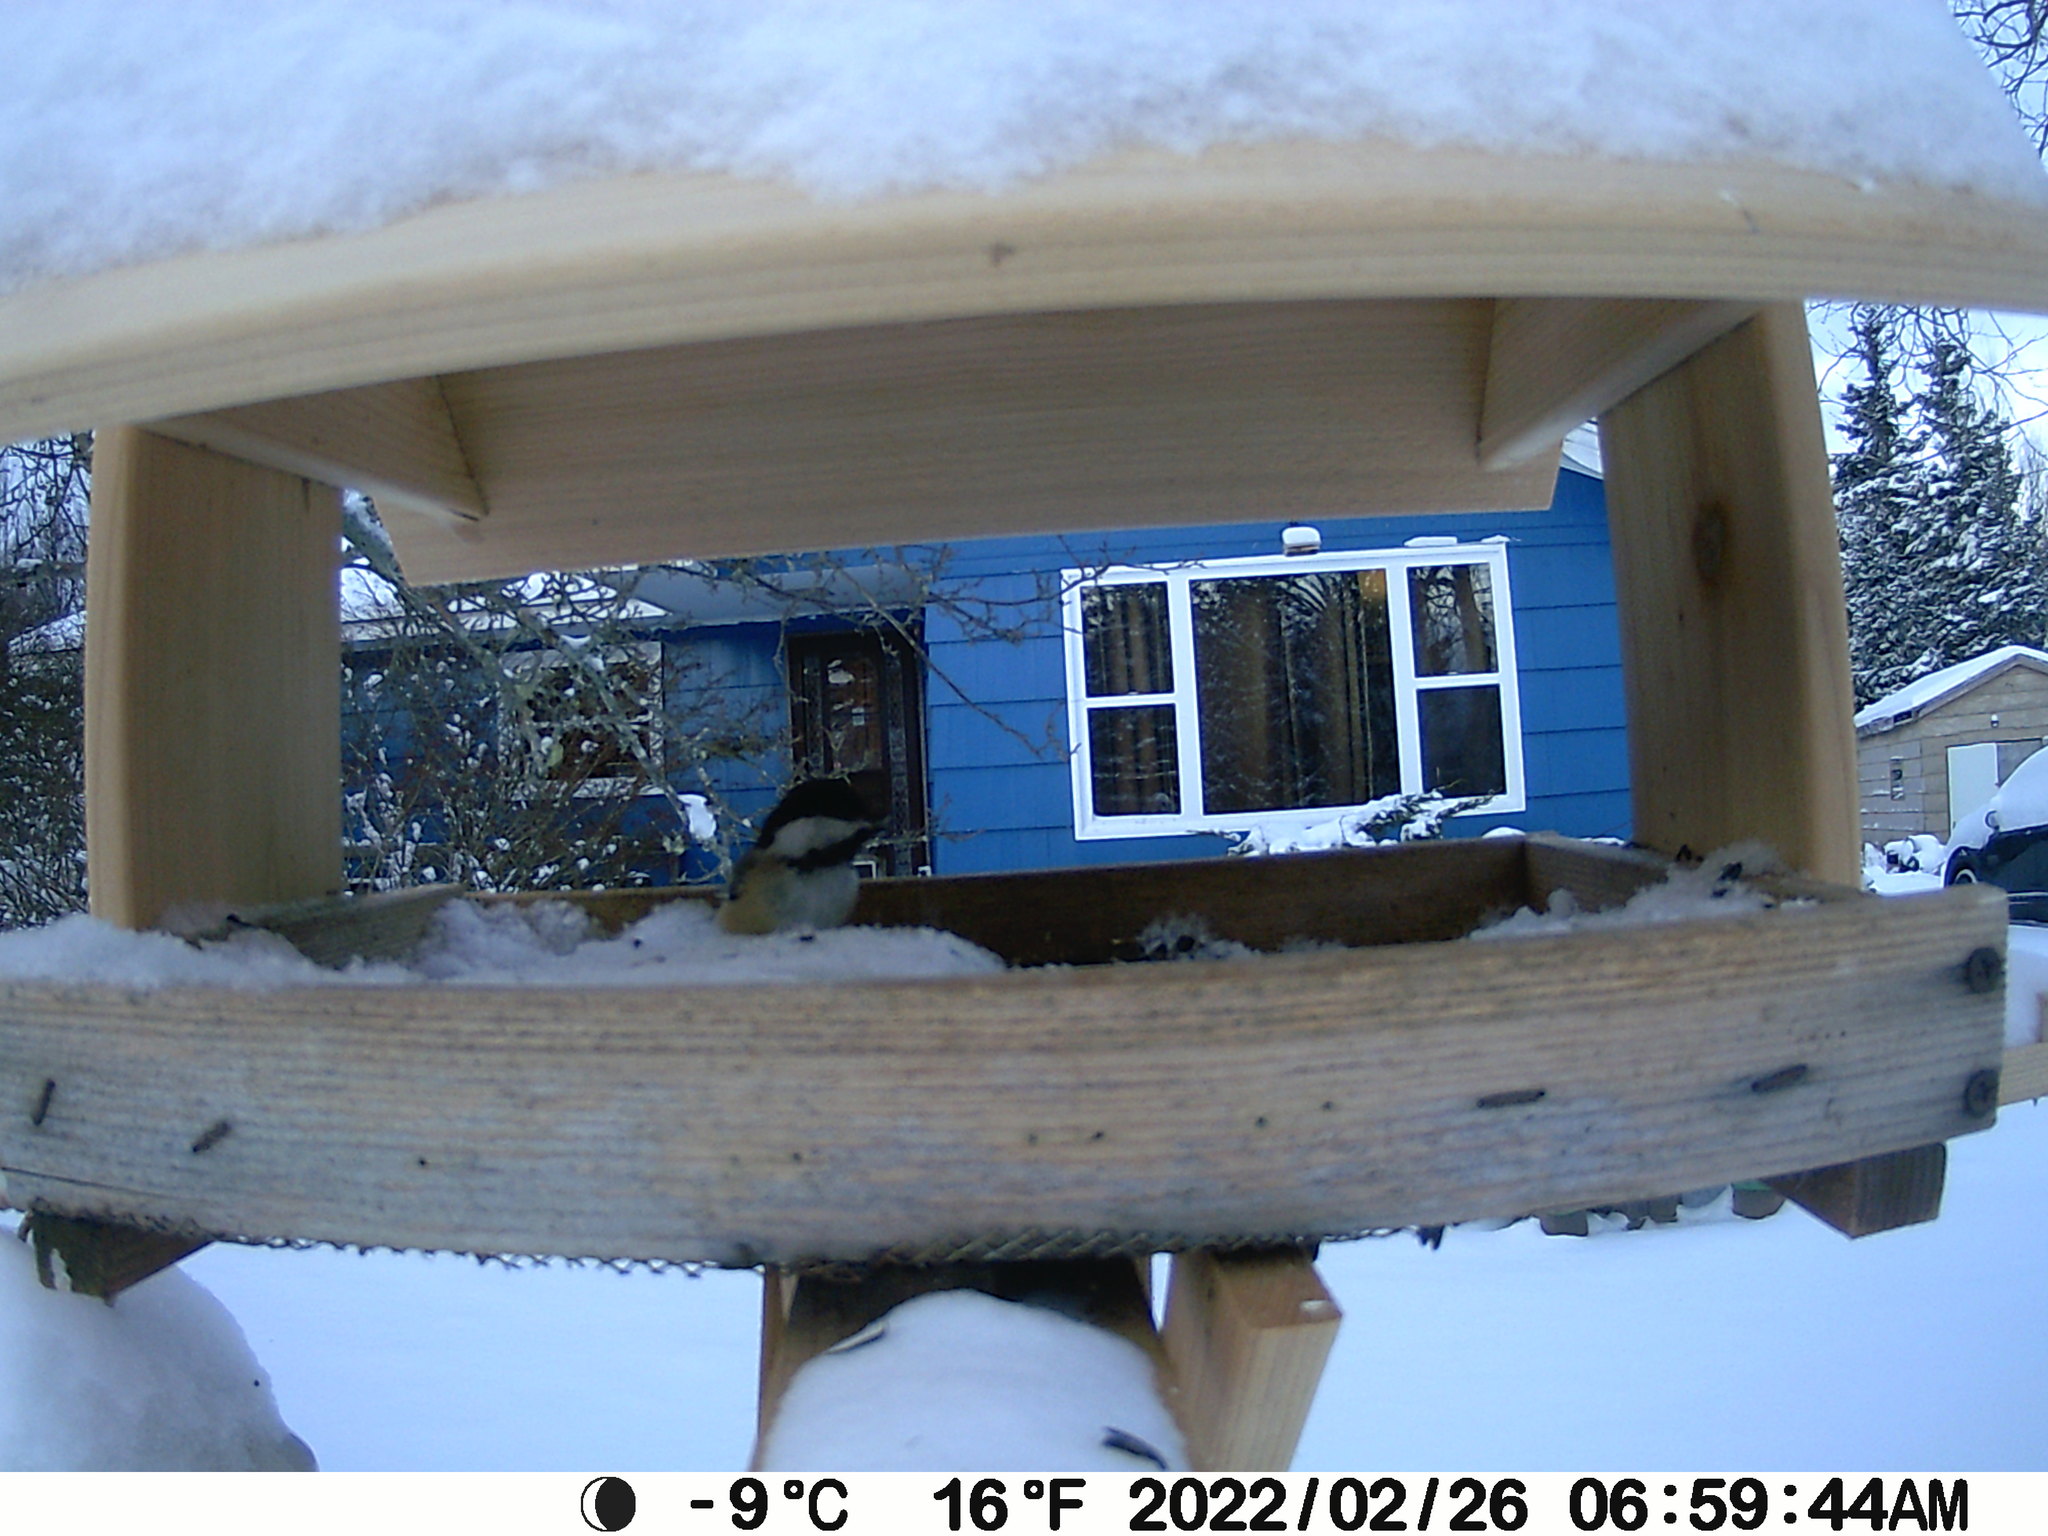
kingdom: Animalia
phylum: Chordata
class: Aves
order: Passeriformes
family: Paridae
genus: Poecile
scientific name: Poecile atricapillus
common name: Black-capped chickadee
